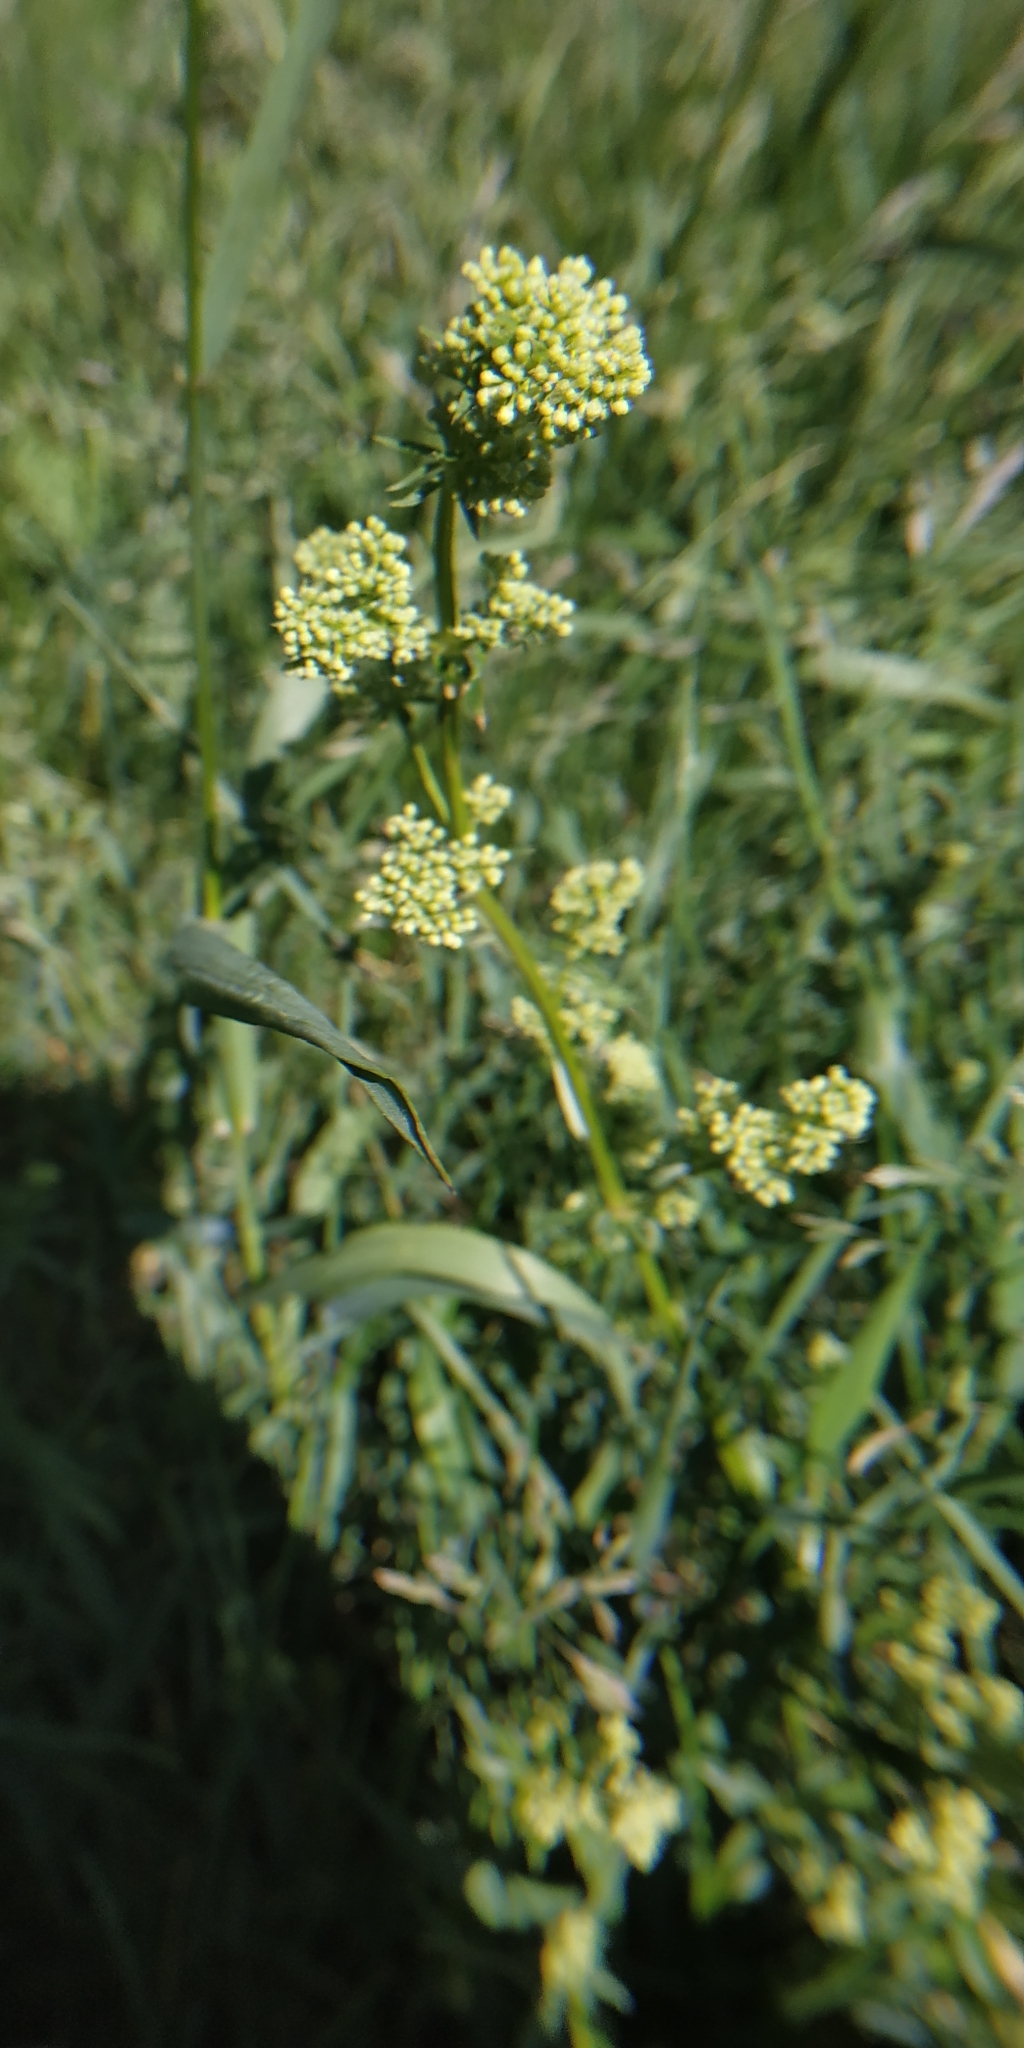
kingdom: Plantae
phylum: Tracheophyta
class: Magnoliopsida
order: Gentianales
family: Rubiaceae
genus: Galium
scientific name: Galium mollugo
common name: Hedge bedstraw
